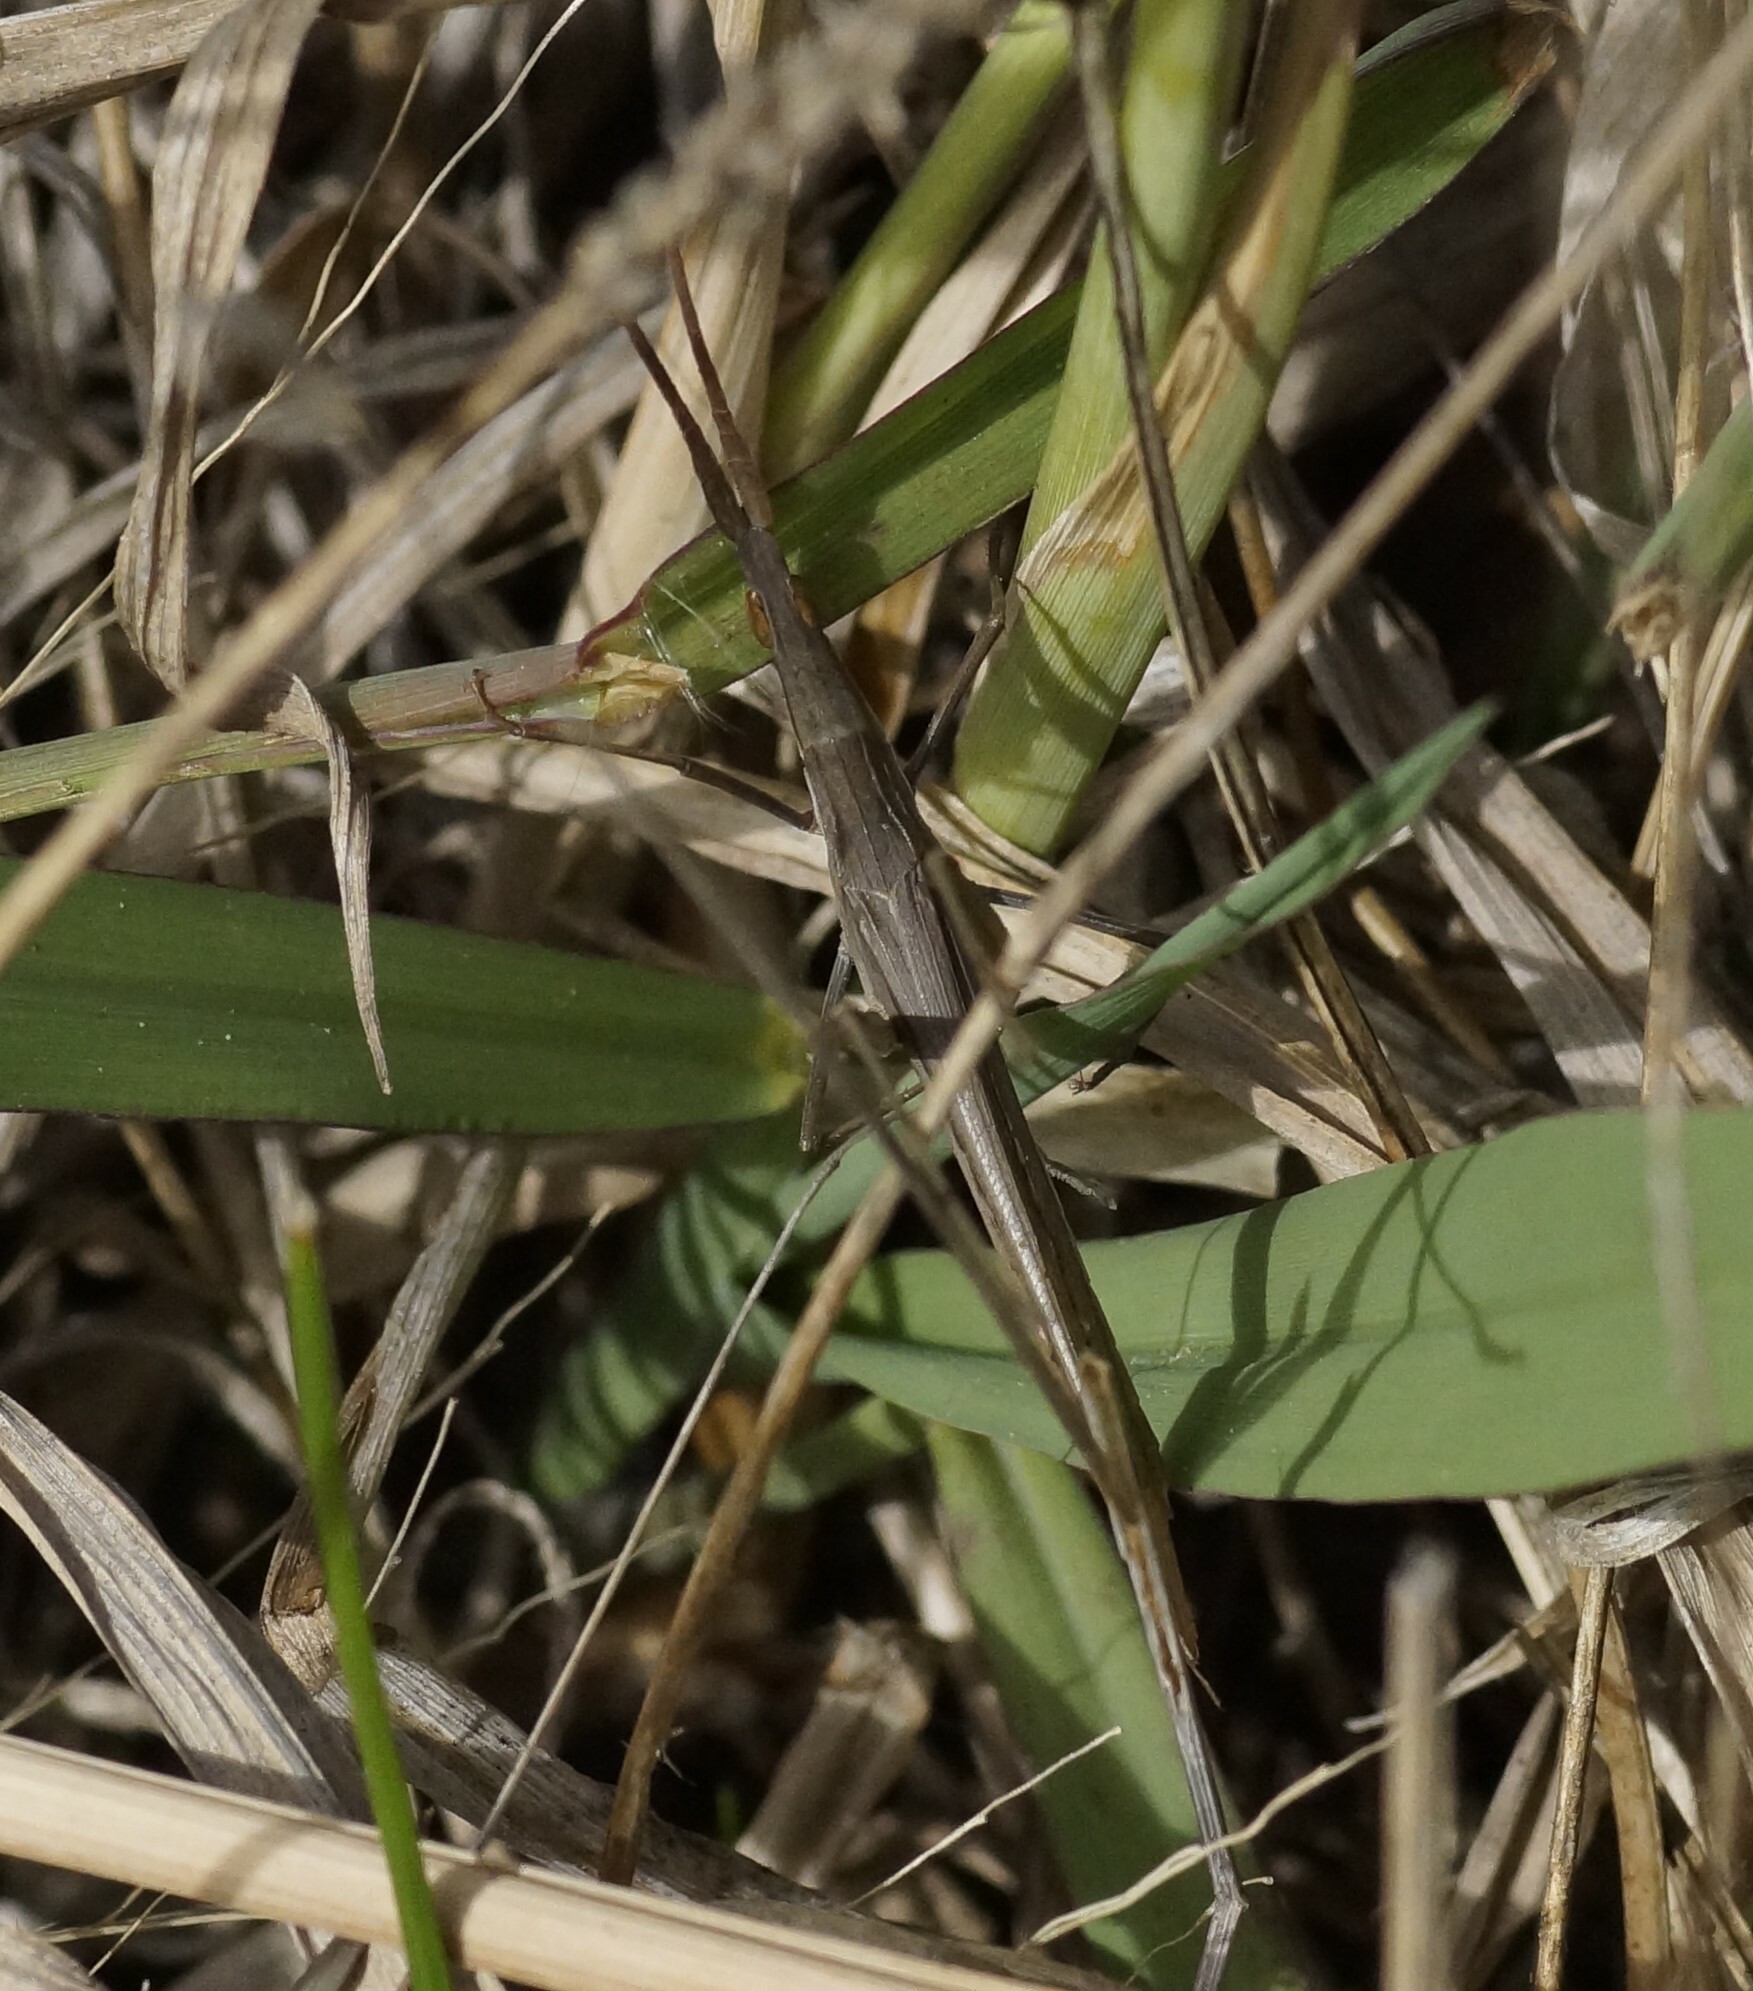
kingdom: Animalia
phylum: Arthropoda
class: Insecta
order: Orthoptera
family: Acrididae
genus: Acrida
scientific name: Acrida conica
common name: Giant green slantface
